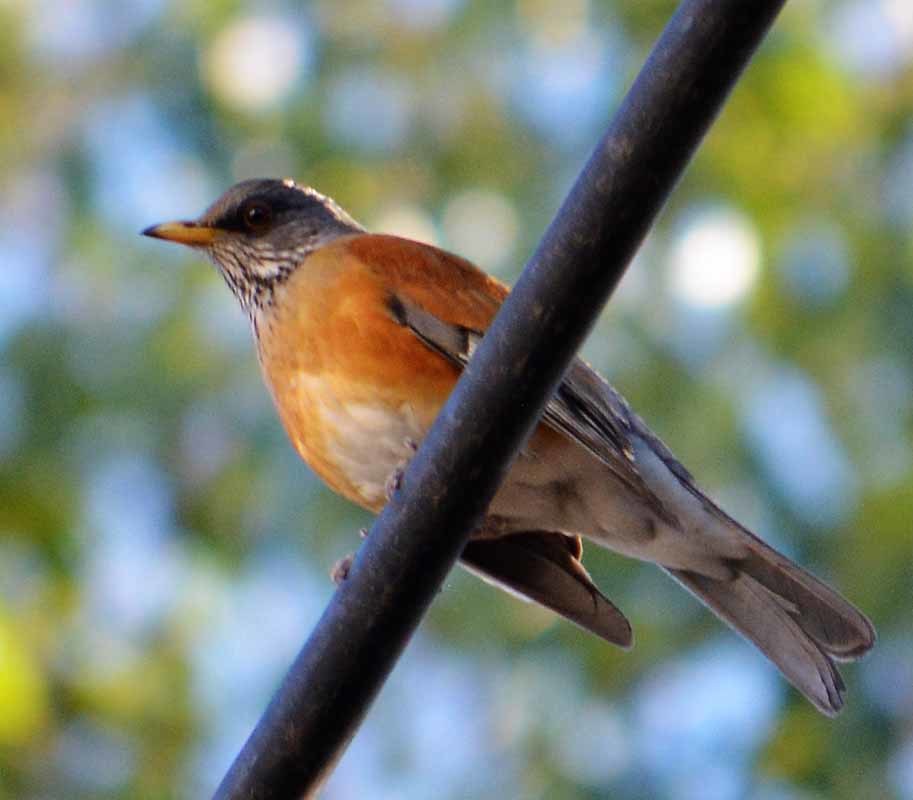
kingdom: Animalia
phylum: Chordata
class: Aves
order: Passeriformes
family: Turdidae
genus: Turdus
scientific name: Turdus rufopalliatus
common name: Rufous-backed robin
